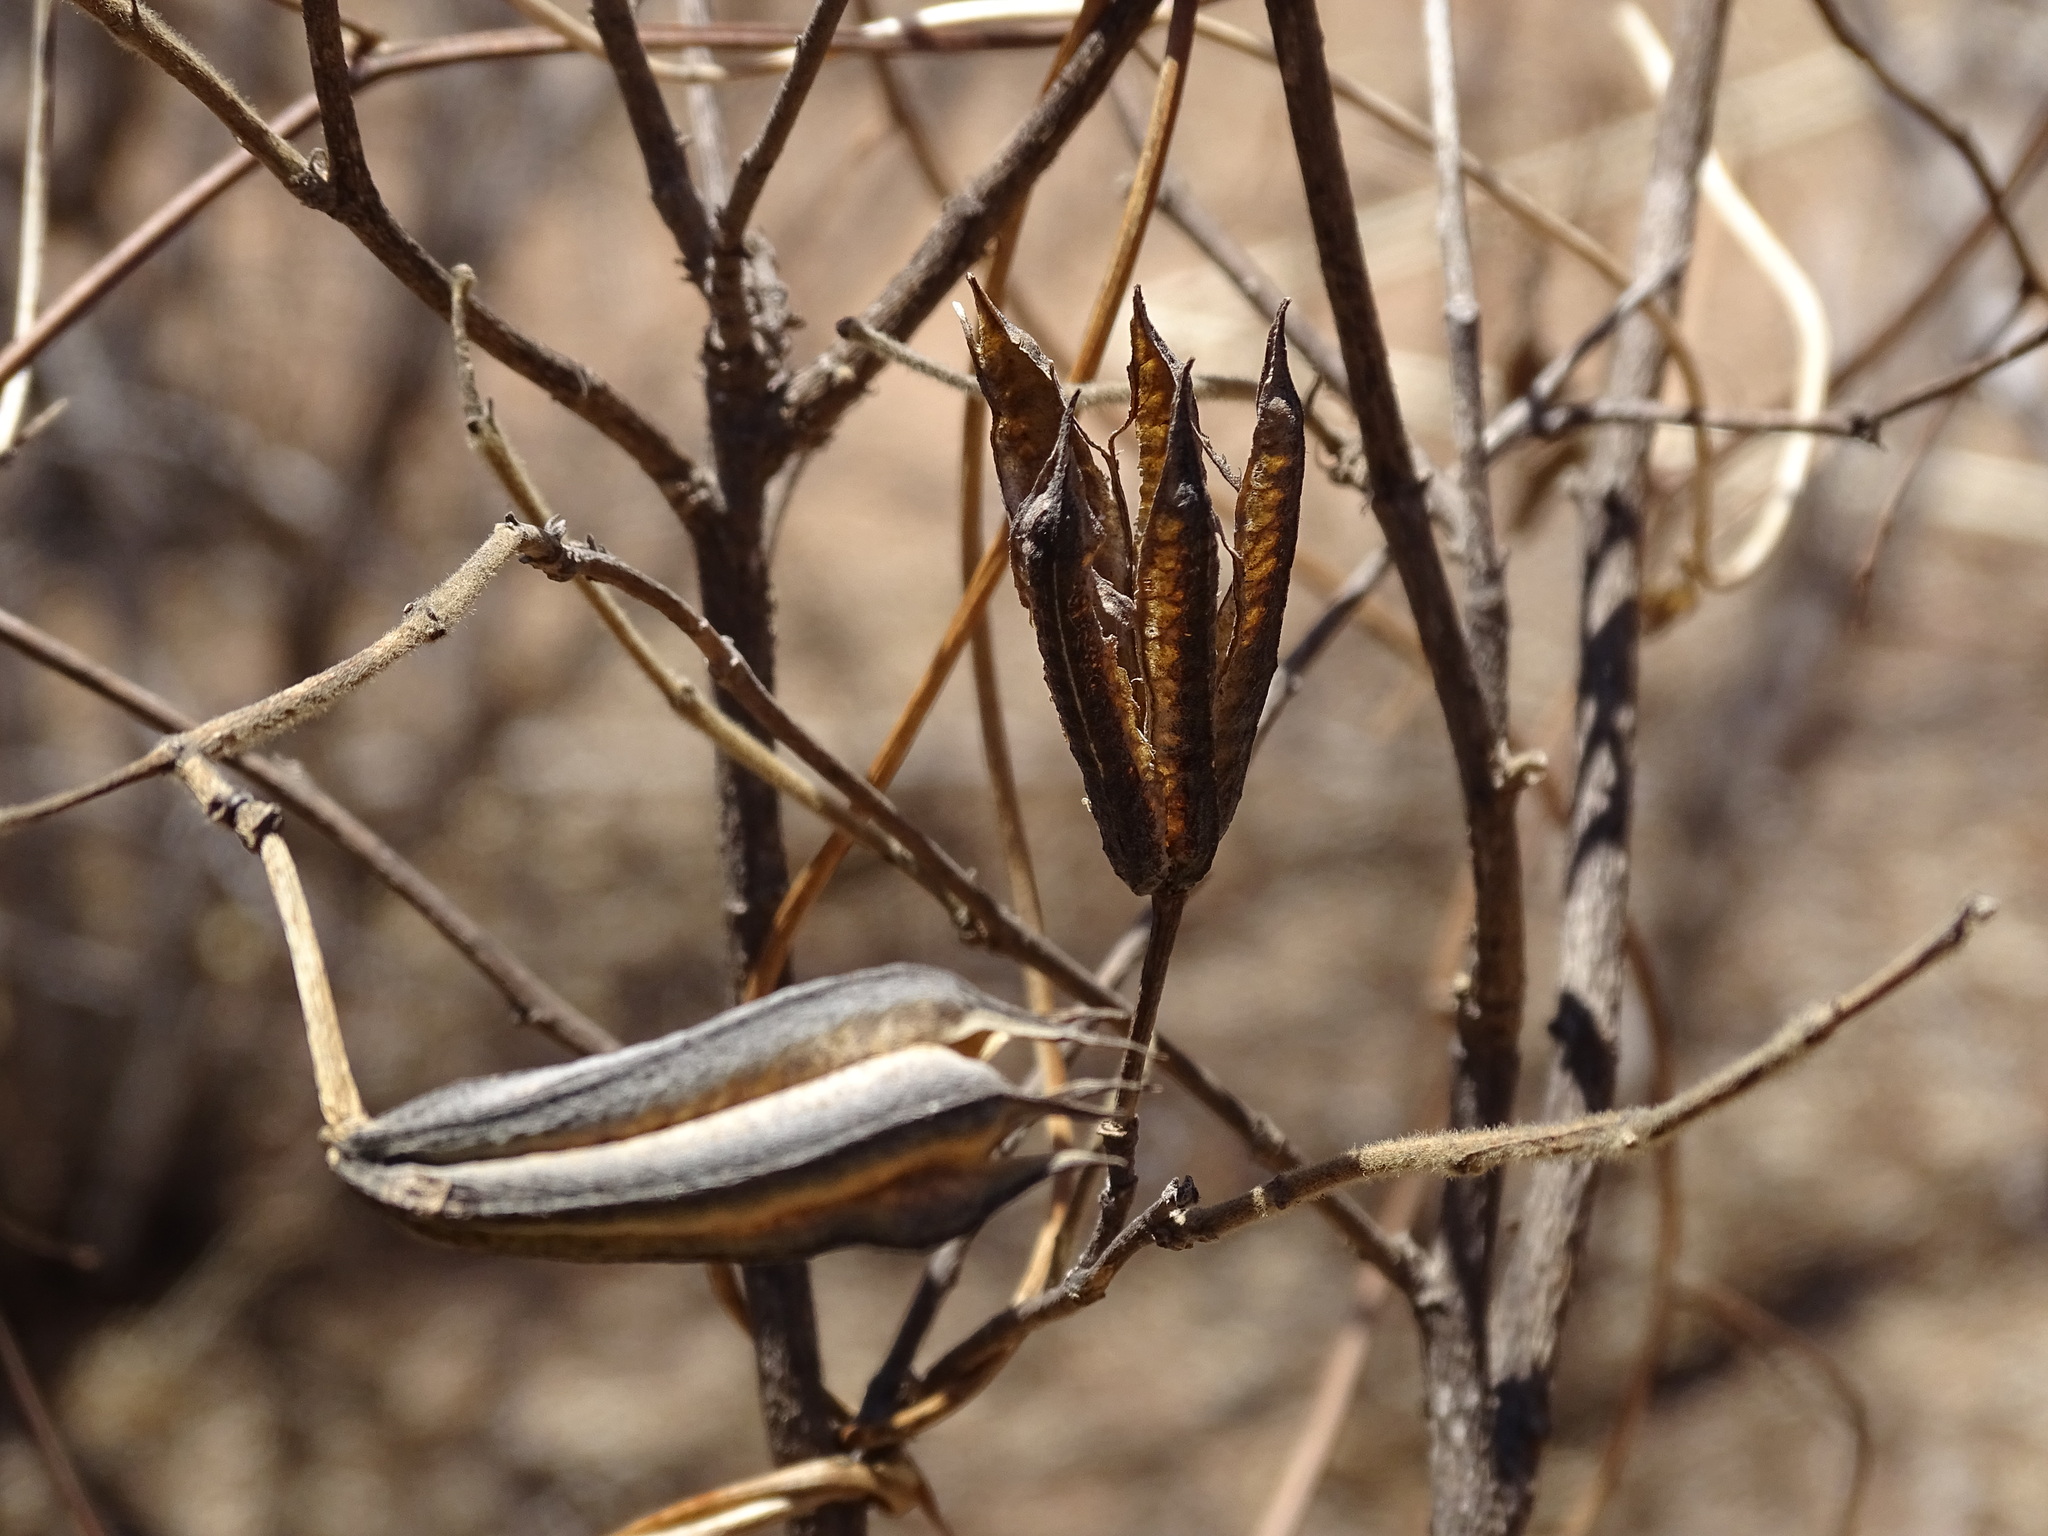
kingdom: Plantae
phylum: Tracheophyta
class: Magnoliopsida
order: Malvales
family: Malvaceae
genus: Helicteres
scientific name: Helicteres vegae
